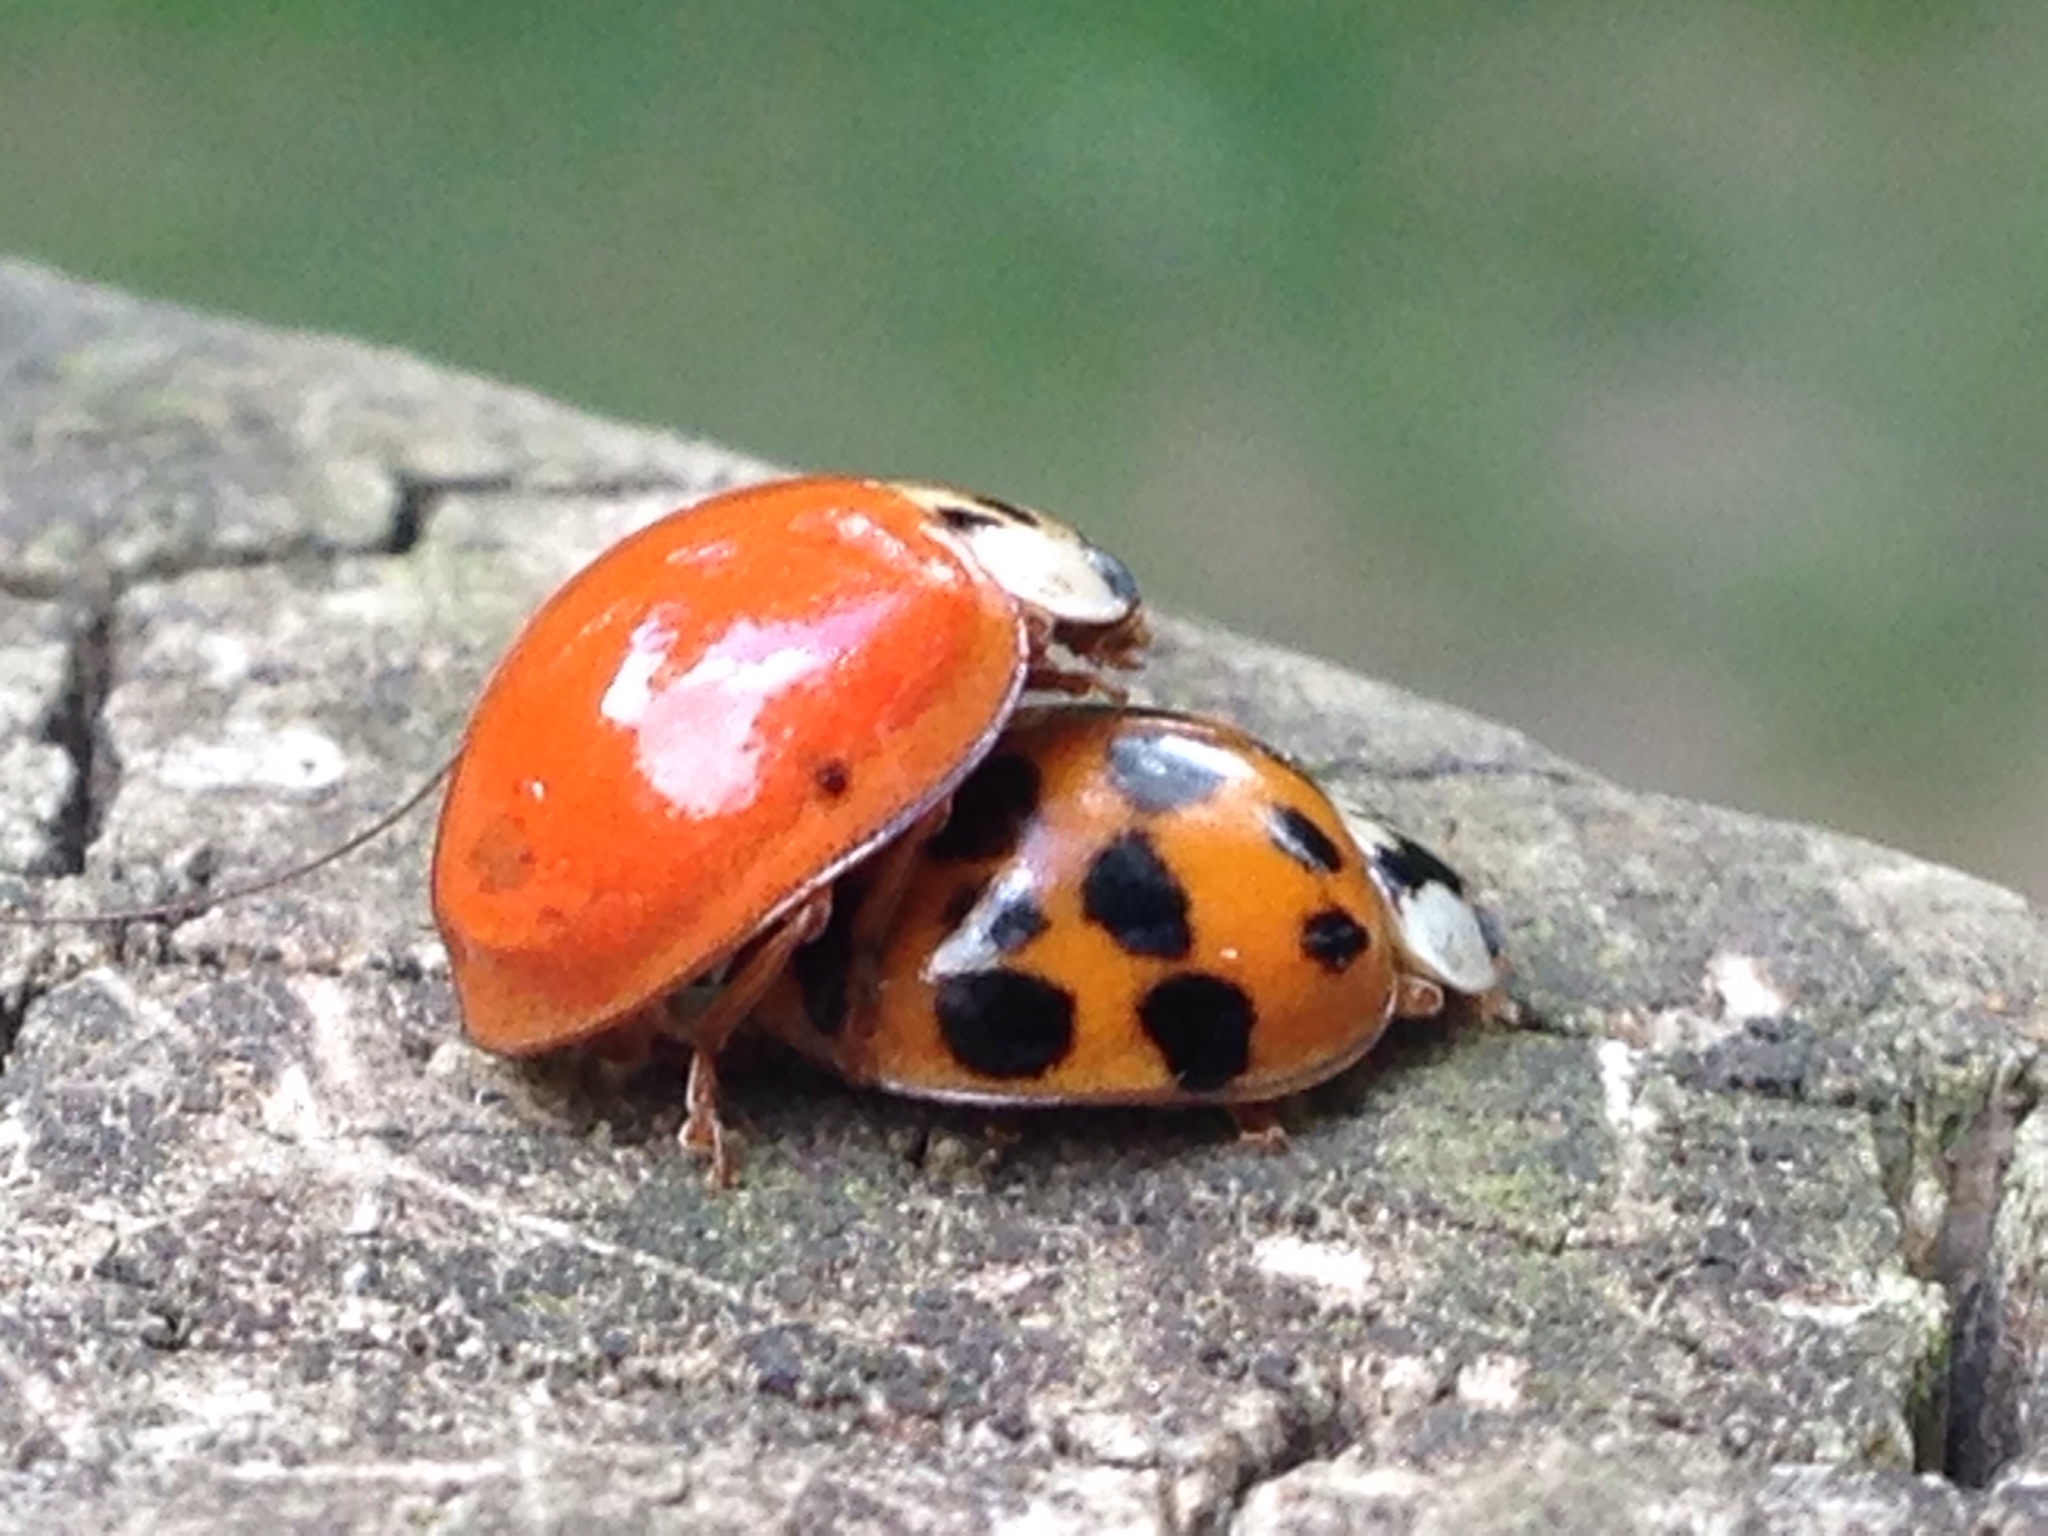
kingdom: Animalia
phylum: Arthropoda
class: Insecta
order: Coleoptera
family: Coccinellidae
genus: Harmonia
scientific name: Harmonia axyridis
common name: Harlequin ladybird
